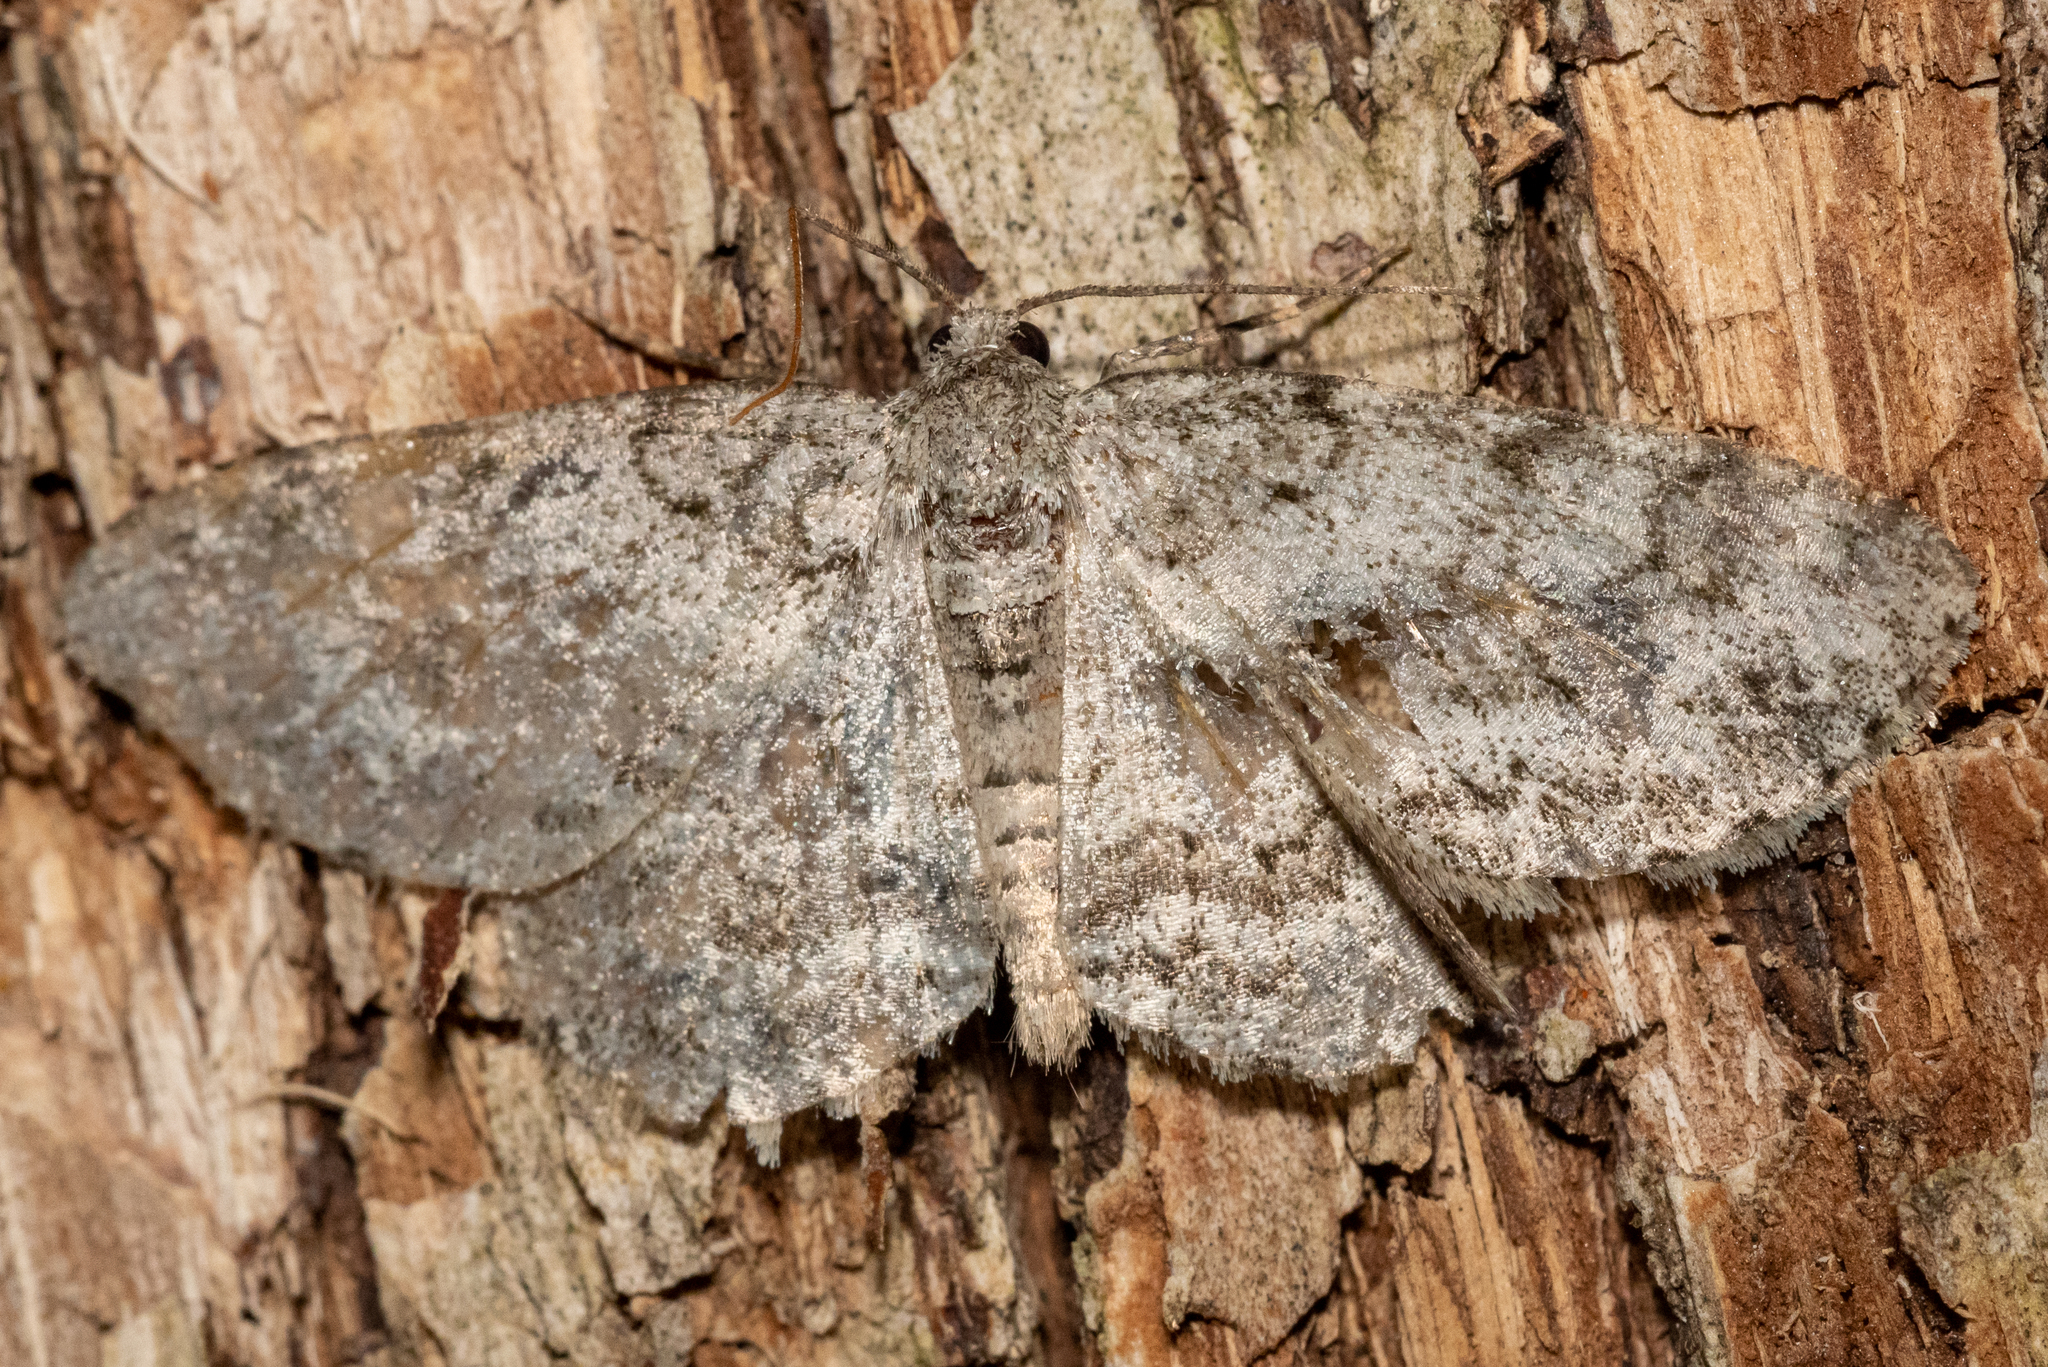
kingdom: Animalia
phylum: Arthropoda
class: Insecta
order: Lepidoptera
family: Geometridae
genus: Ectropis
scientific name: Ectropis crepuscularia
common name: Engrailed
